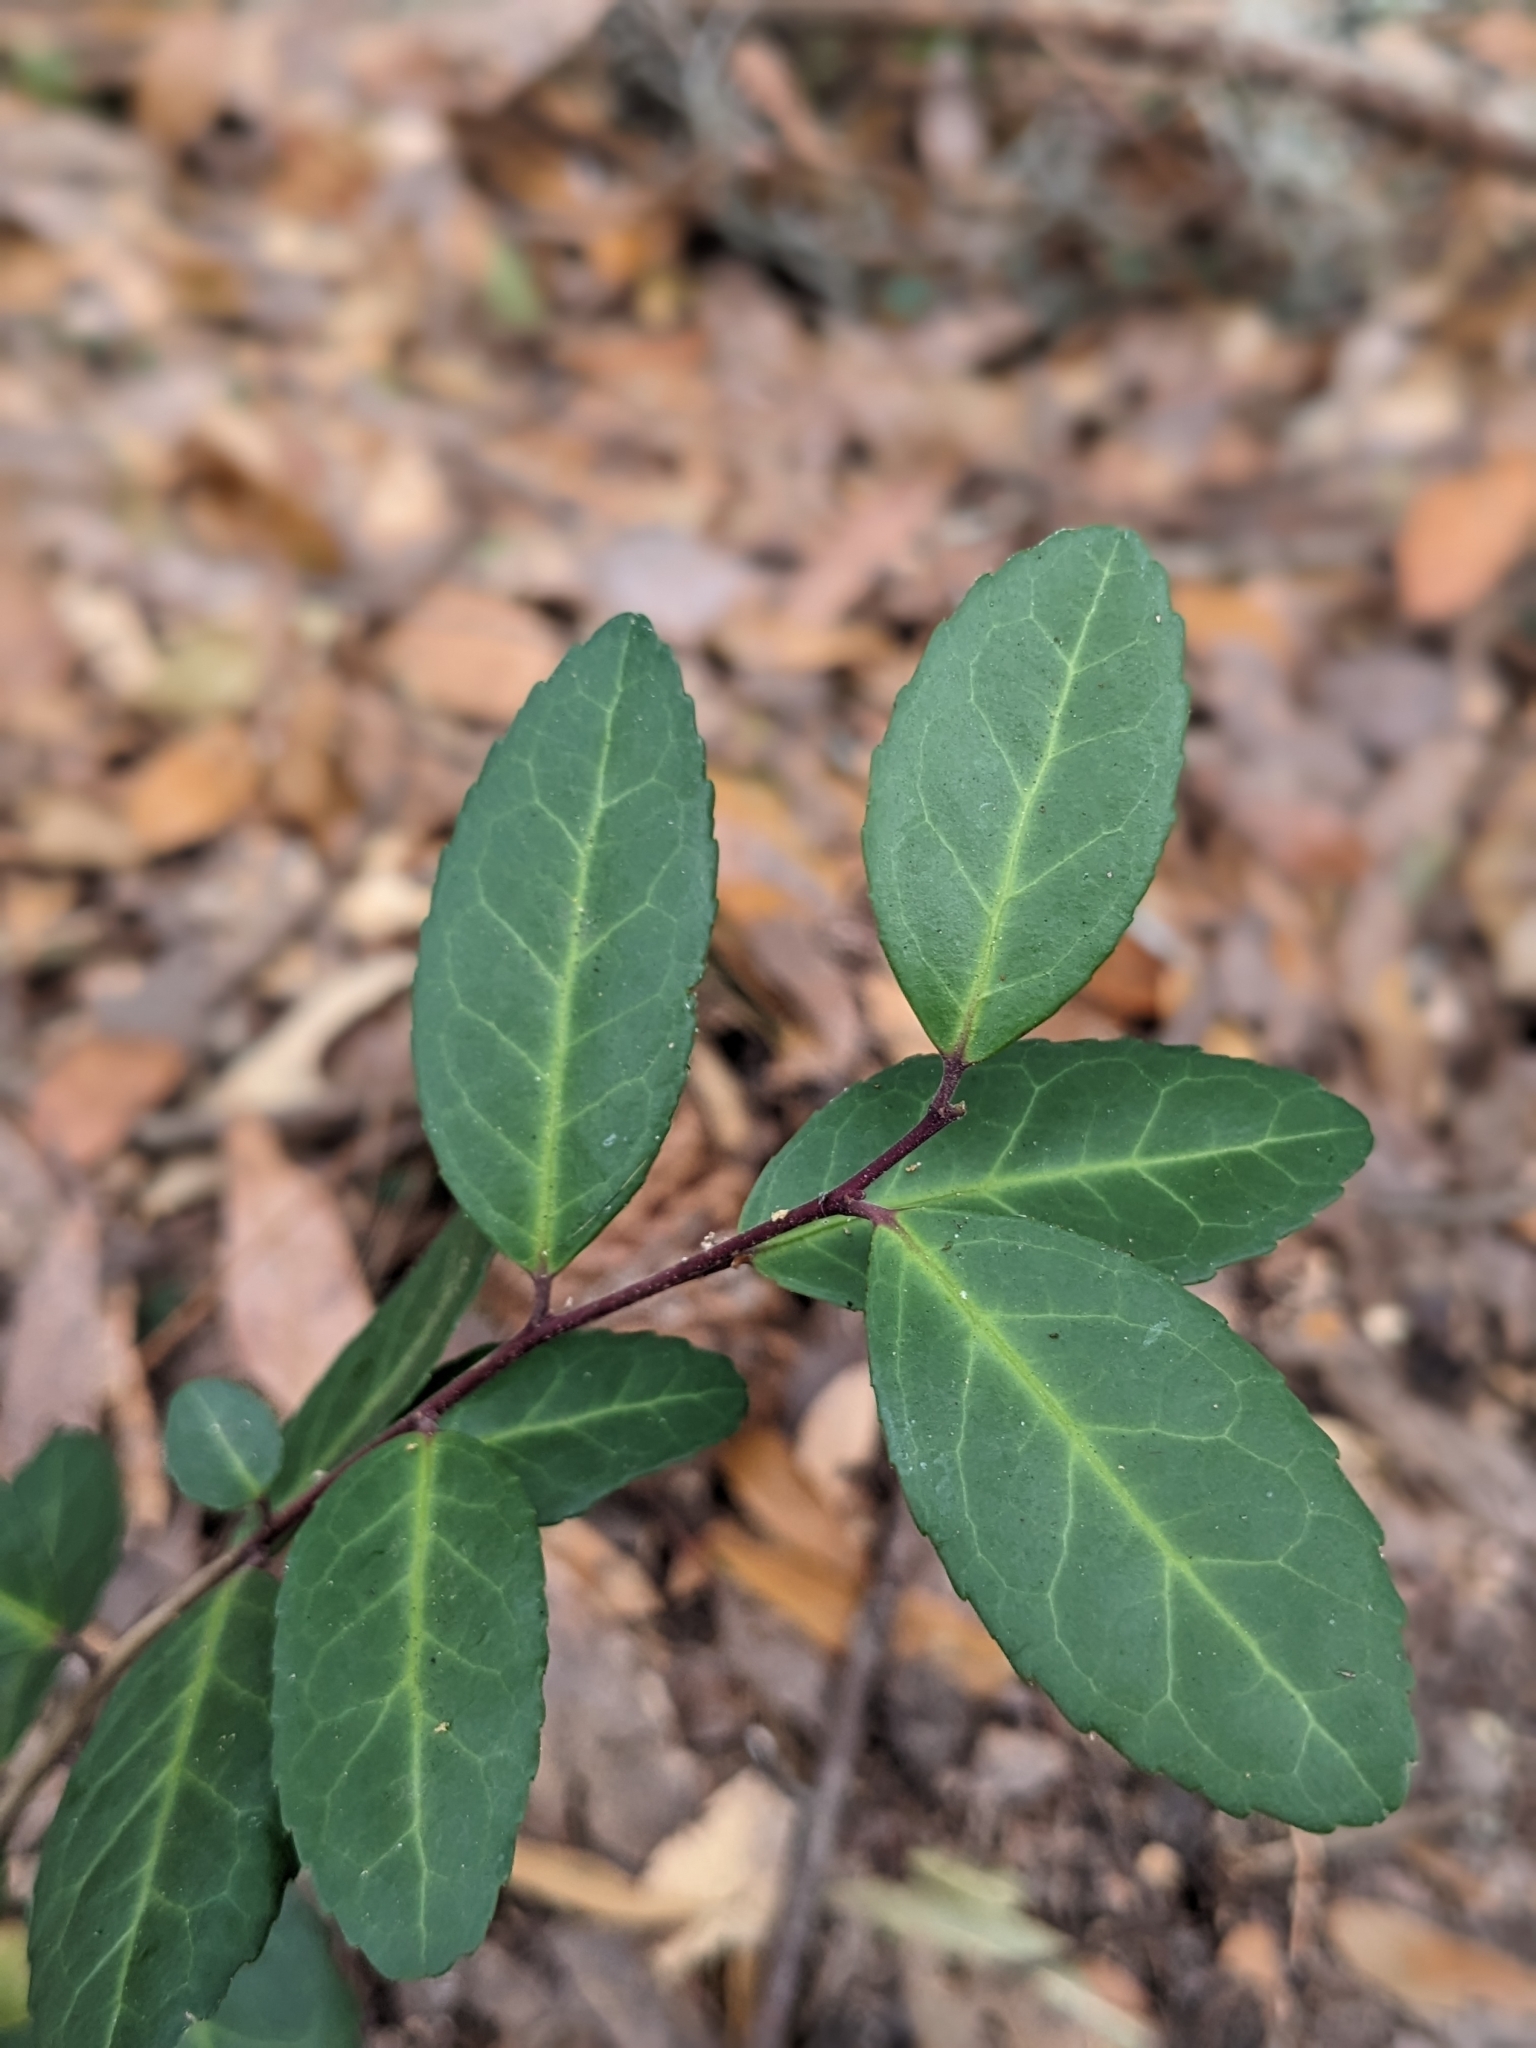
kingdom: Plantae
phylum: Tracheophyta
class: Magnoliopsida
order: Aquifoliales
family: Aquifoliaceae
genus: Ilex
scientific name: Ilex vomitoria
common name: Yaupon holly
